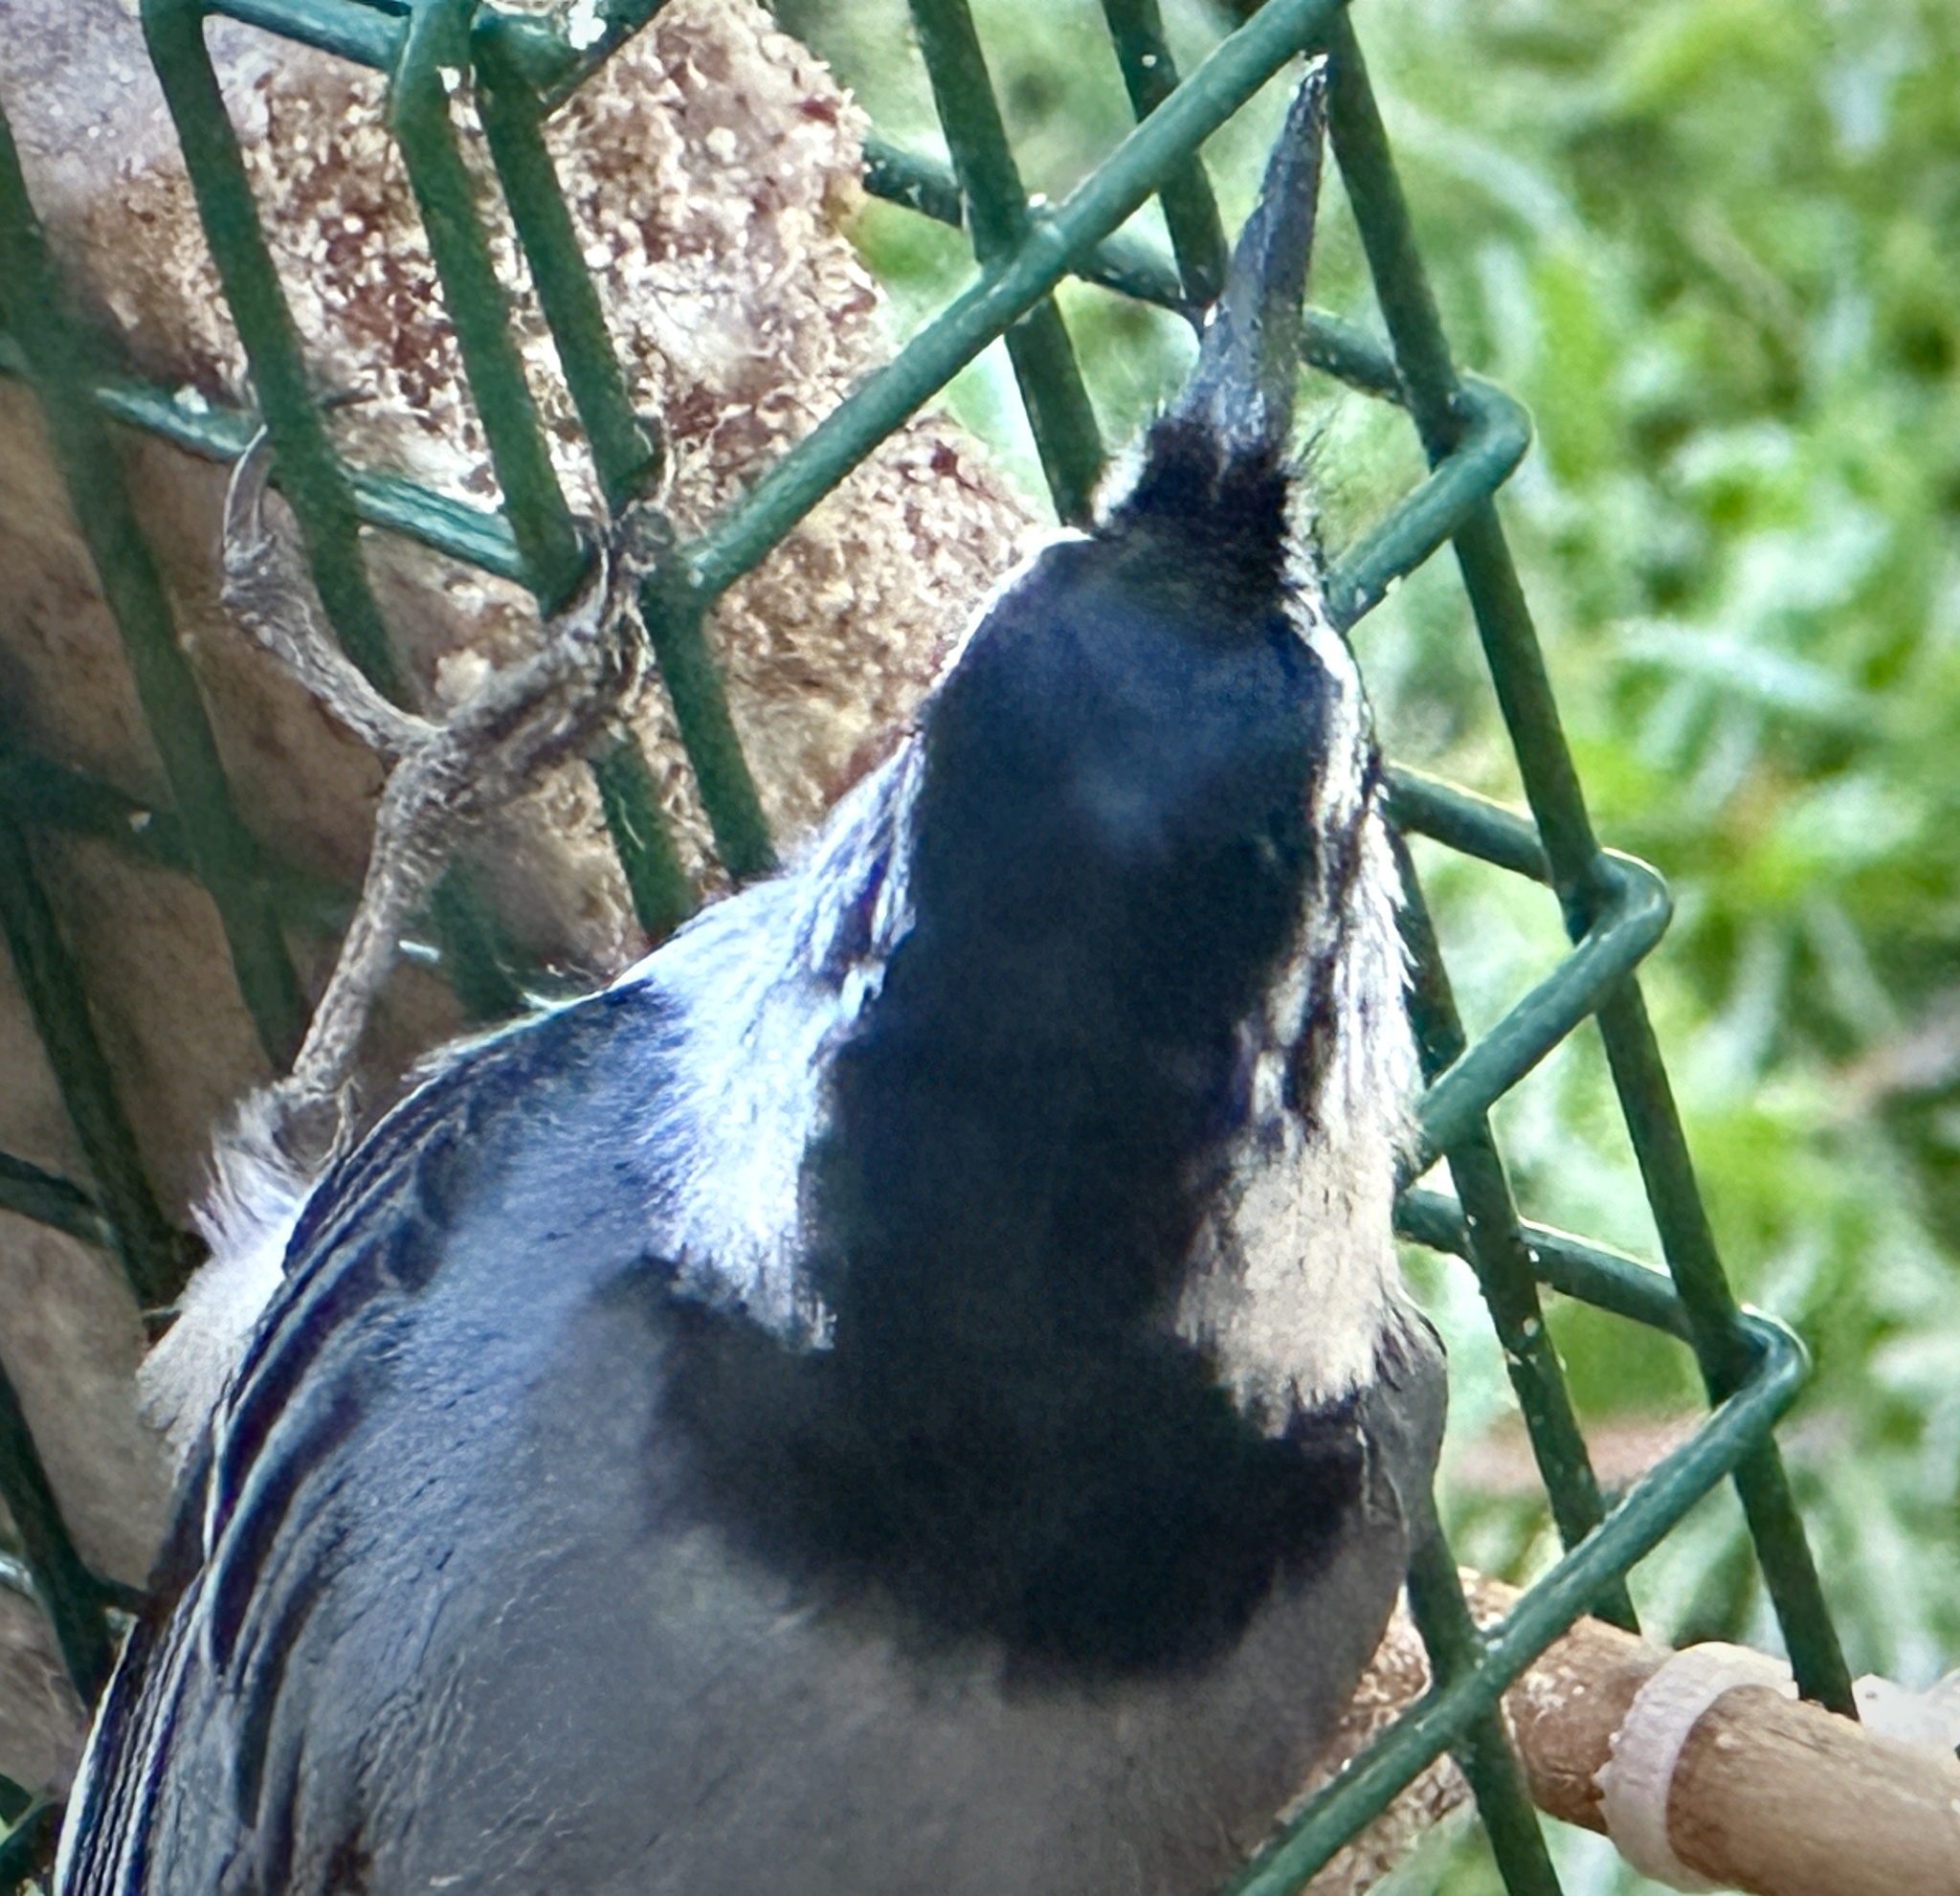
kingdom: Animalia
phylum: Chordata
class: Aves
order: Passeriformes
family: Sittidae
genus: Sitta
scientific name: Sitta carolinensis
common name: White-breasted nuthatch
